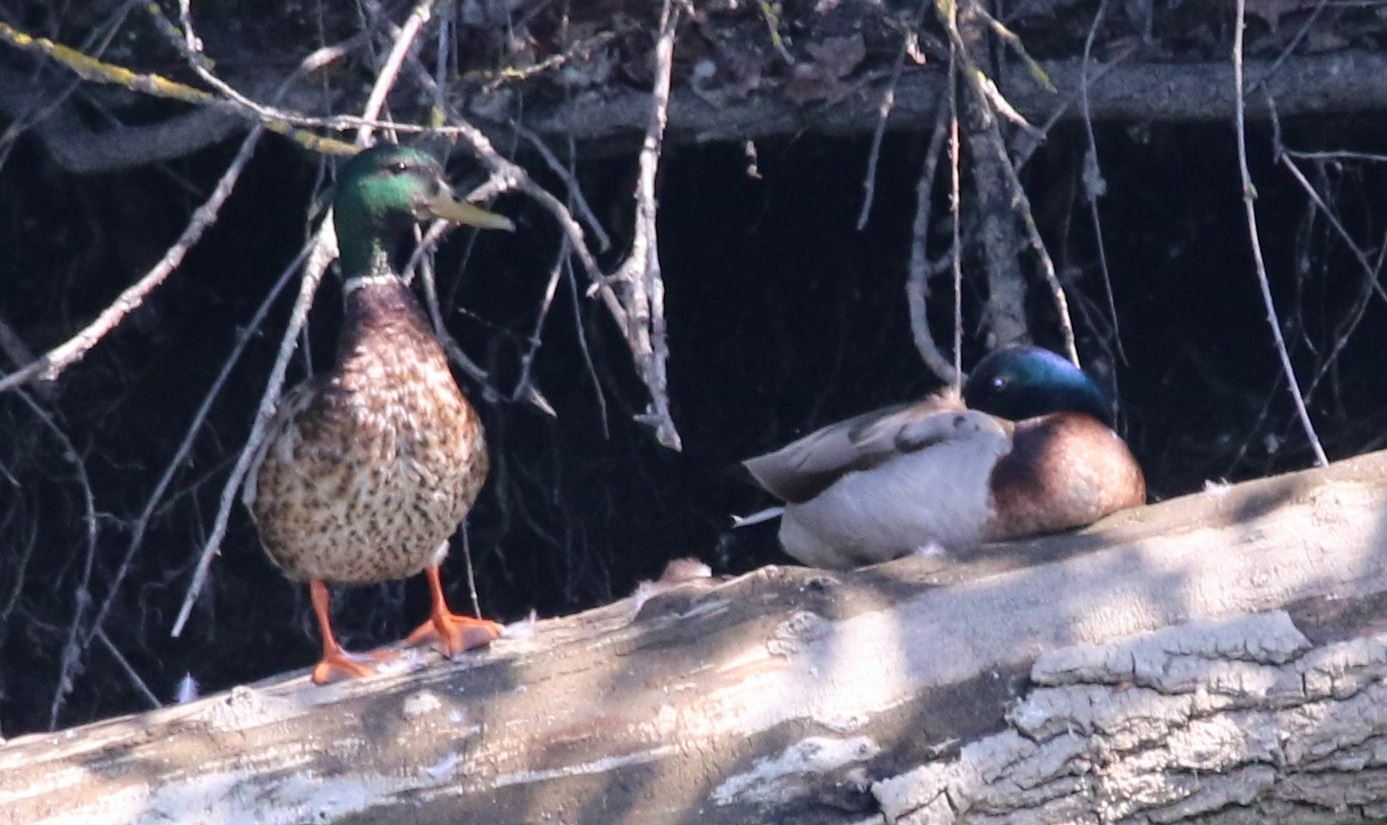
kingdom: Animalia
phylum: Chordata
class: Aves
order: Anseriformes
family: Anatidae
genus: Anas
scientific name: Anas platyrhynchos
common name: Mallard
